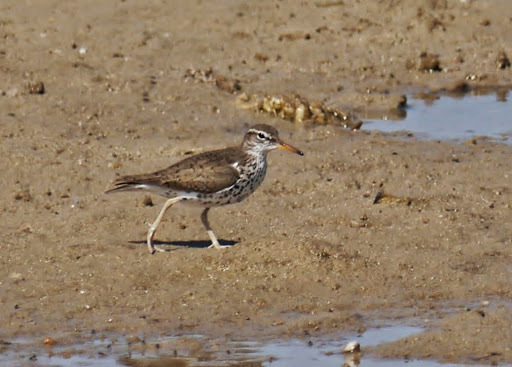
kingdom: Animalia
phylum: Chordata
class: Aves
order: Charadriiformes
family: Scolopacidae
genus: Actitis
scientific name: Actitis macularius
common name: Spotted sandpiper
